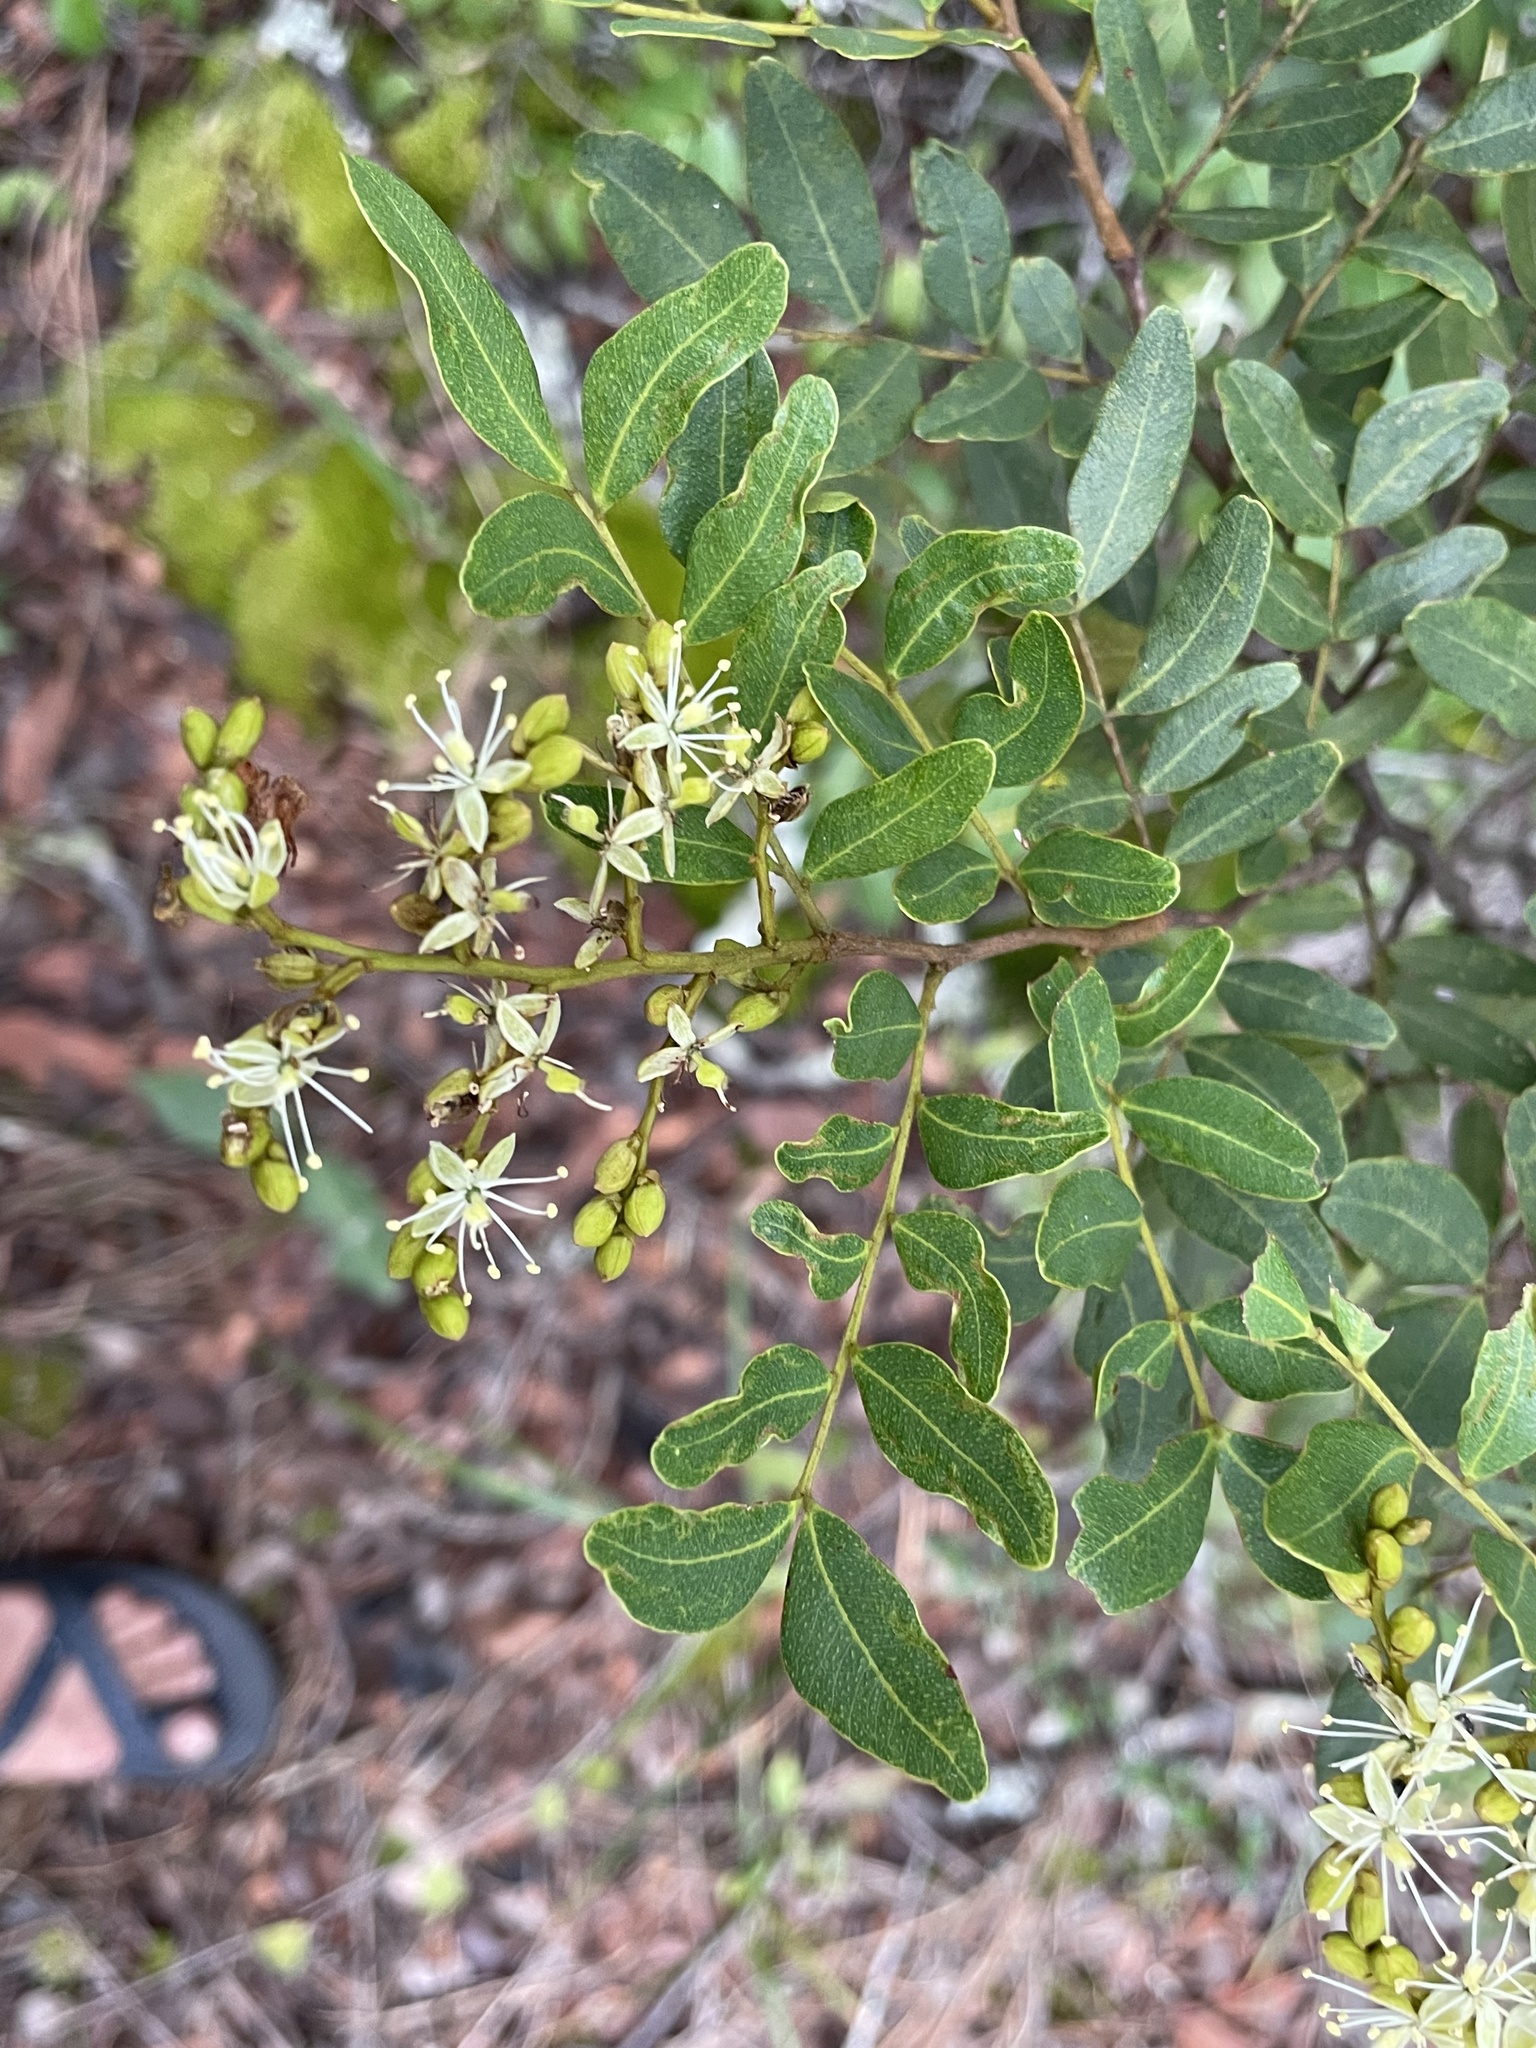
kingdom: Plantae
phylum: Tracheophyta
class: Magnoliopsida
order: Fabales
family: Fabaceae
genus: Copaifera
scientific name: Copaifera baumiana
